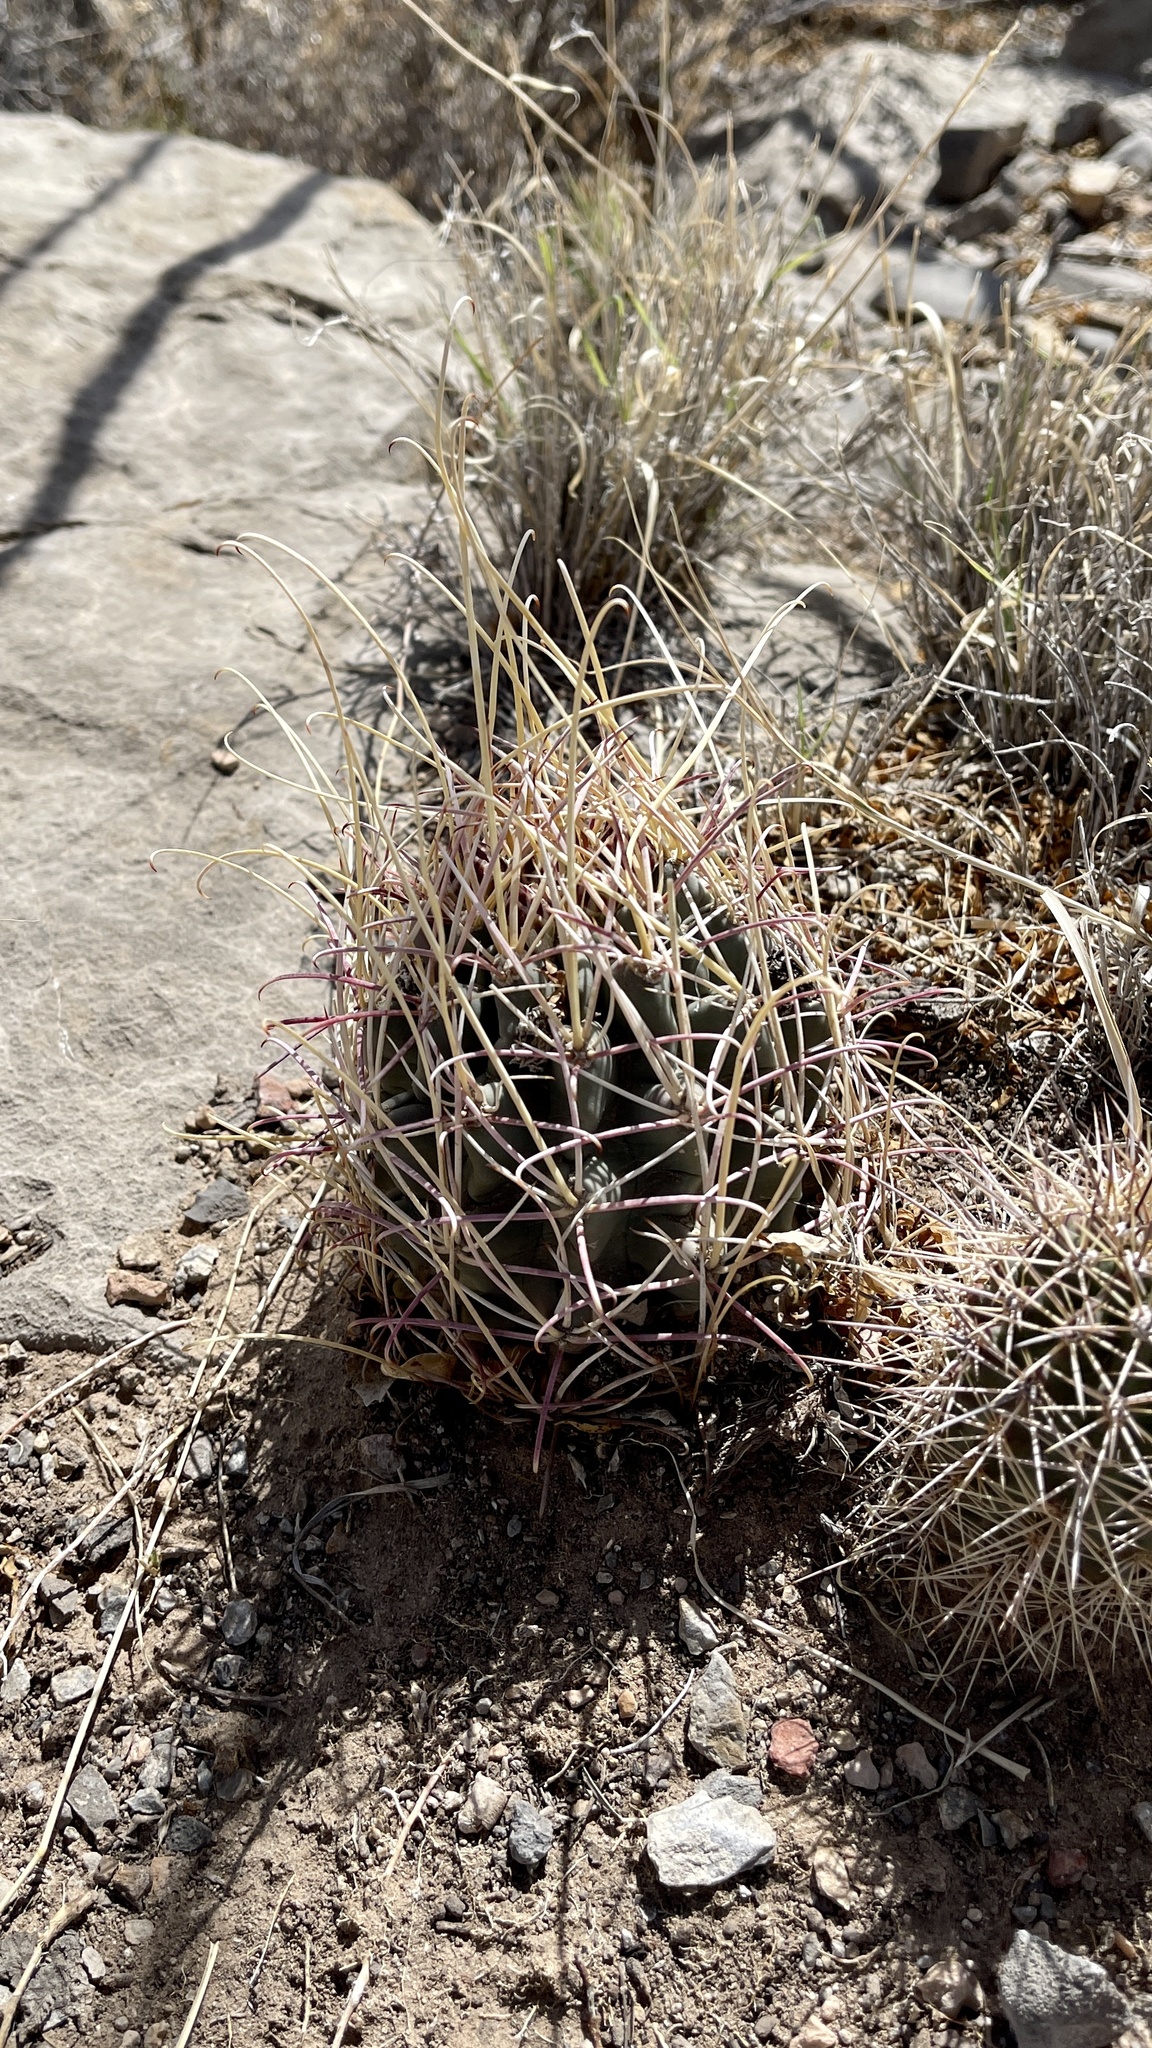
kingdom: Plantae
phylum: Tracheophyta
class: Magnoliopsida
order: Caryophyllales
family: Cactaceae
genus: Ferocactus
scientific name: Ferocactus uncinatus
